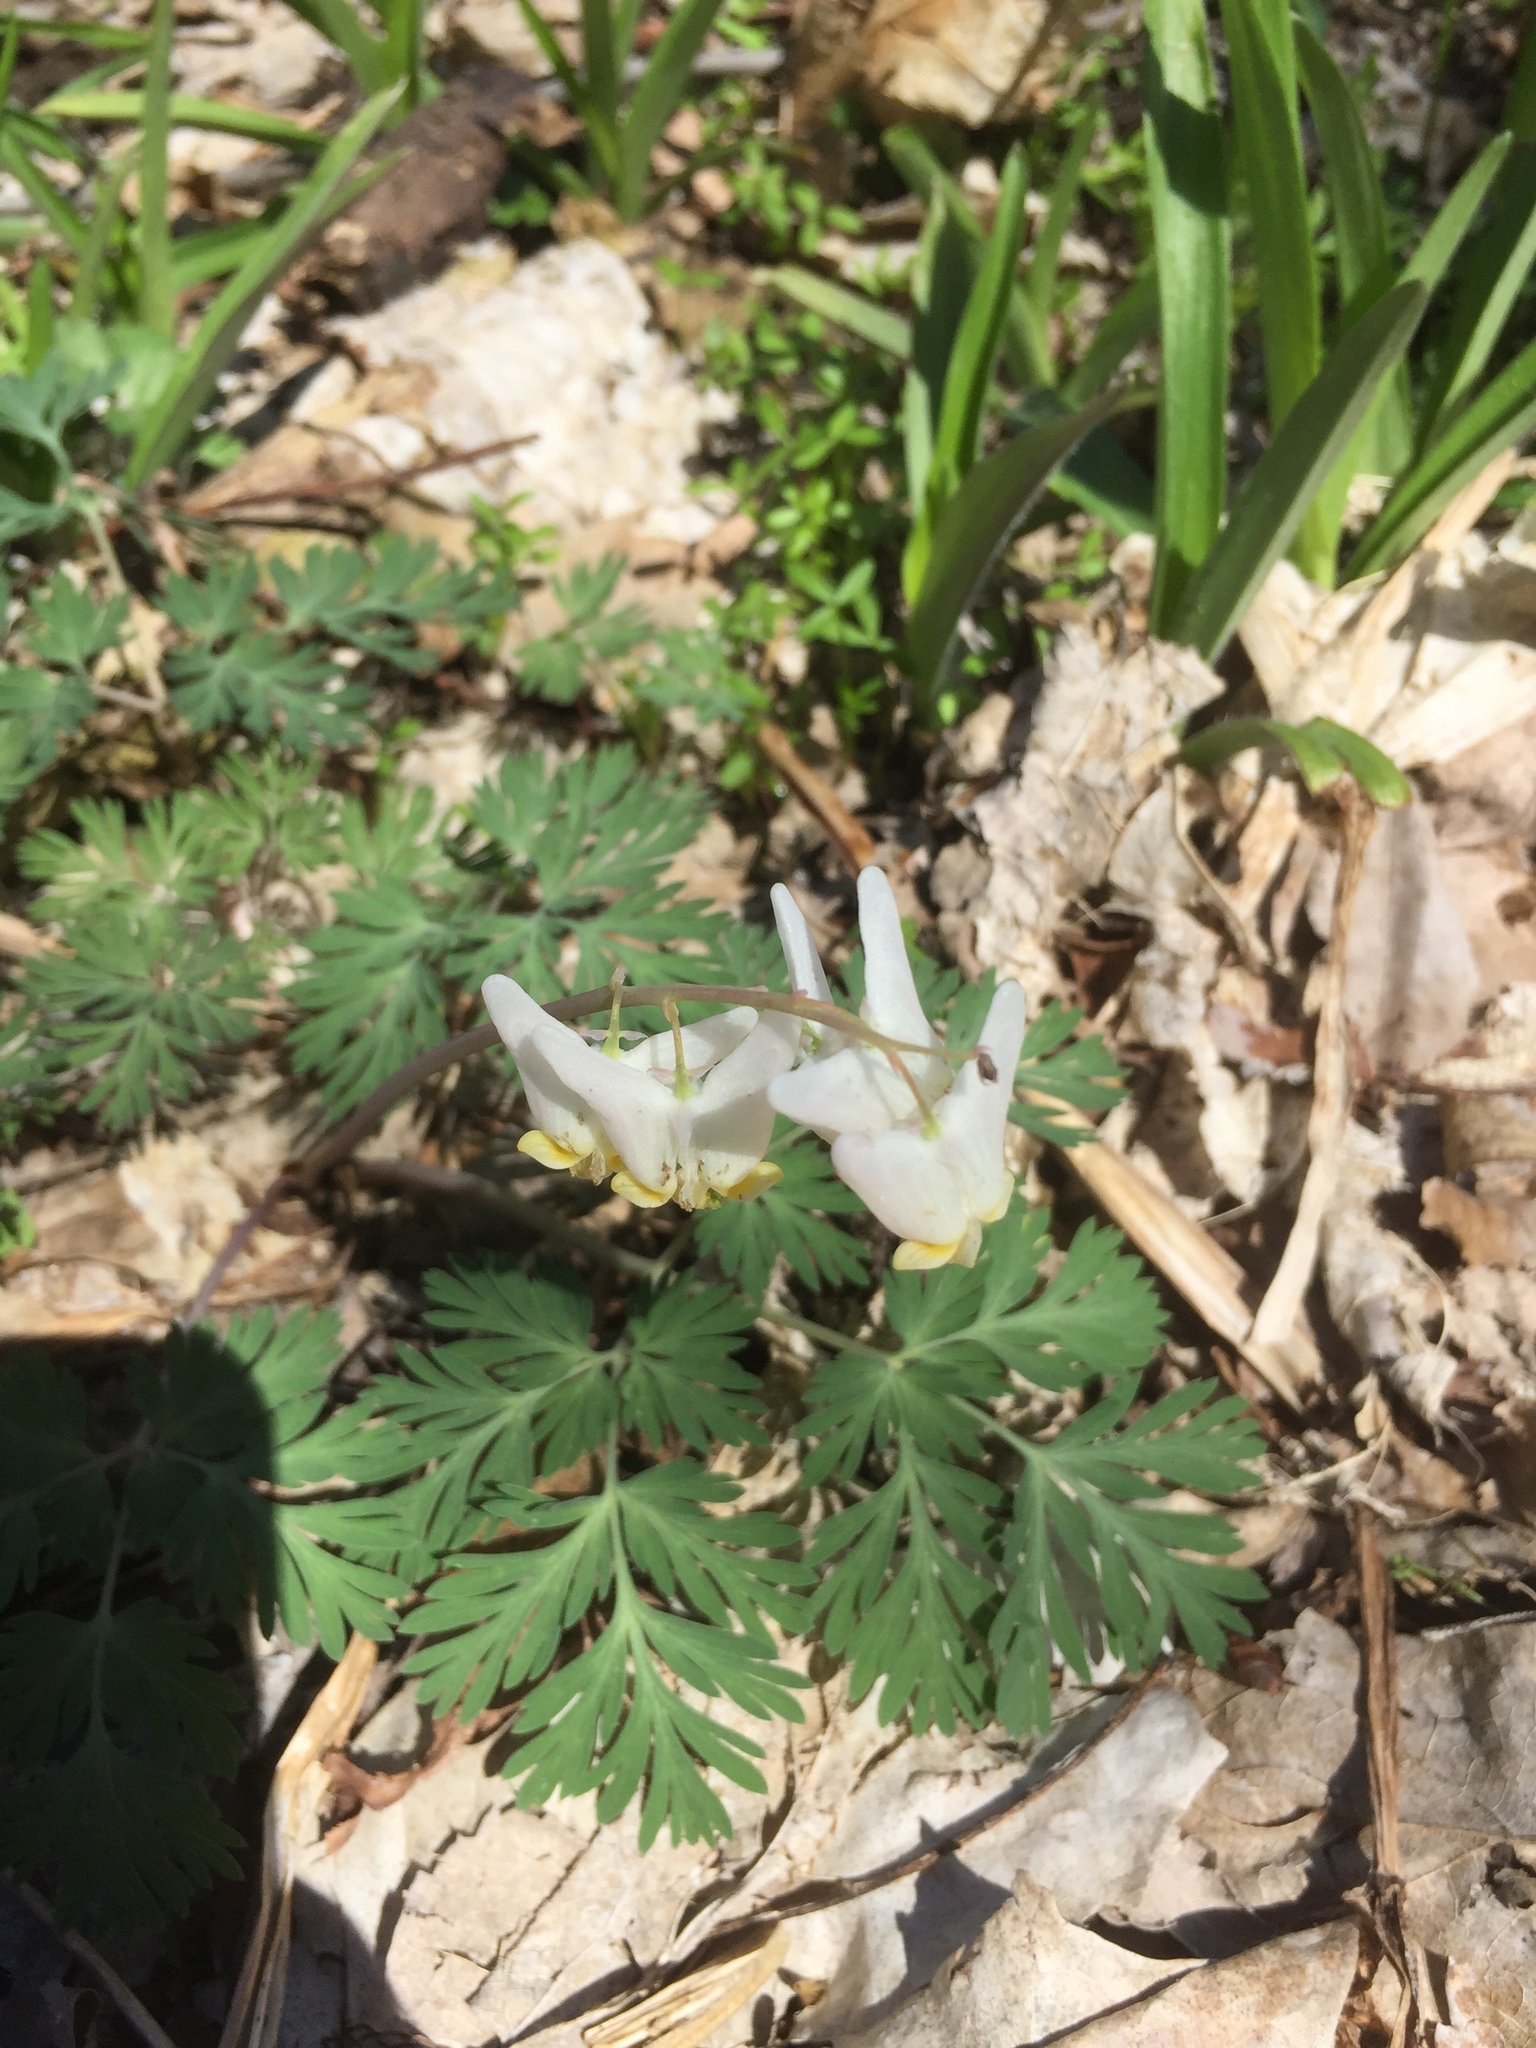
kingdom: Plantae
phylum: Tracheophyta
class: Magnoliopsida
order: Ranunculales
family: Papaveraceae
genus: Dicentra
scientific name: Dicentra cucullaria
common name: Dutchman's breeches
